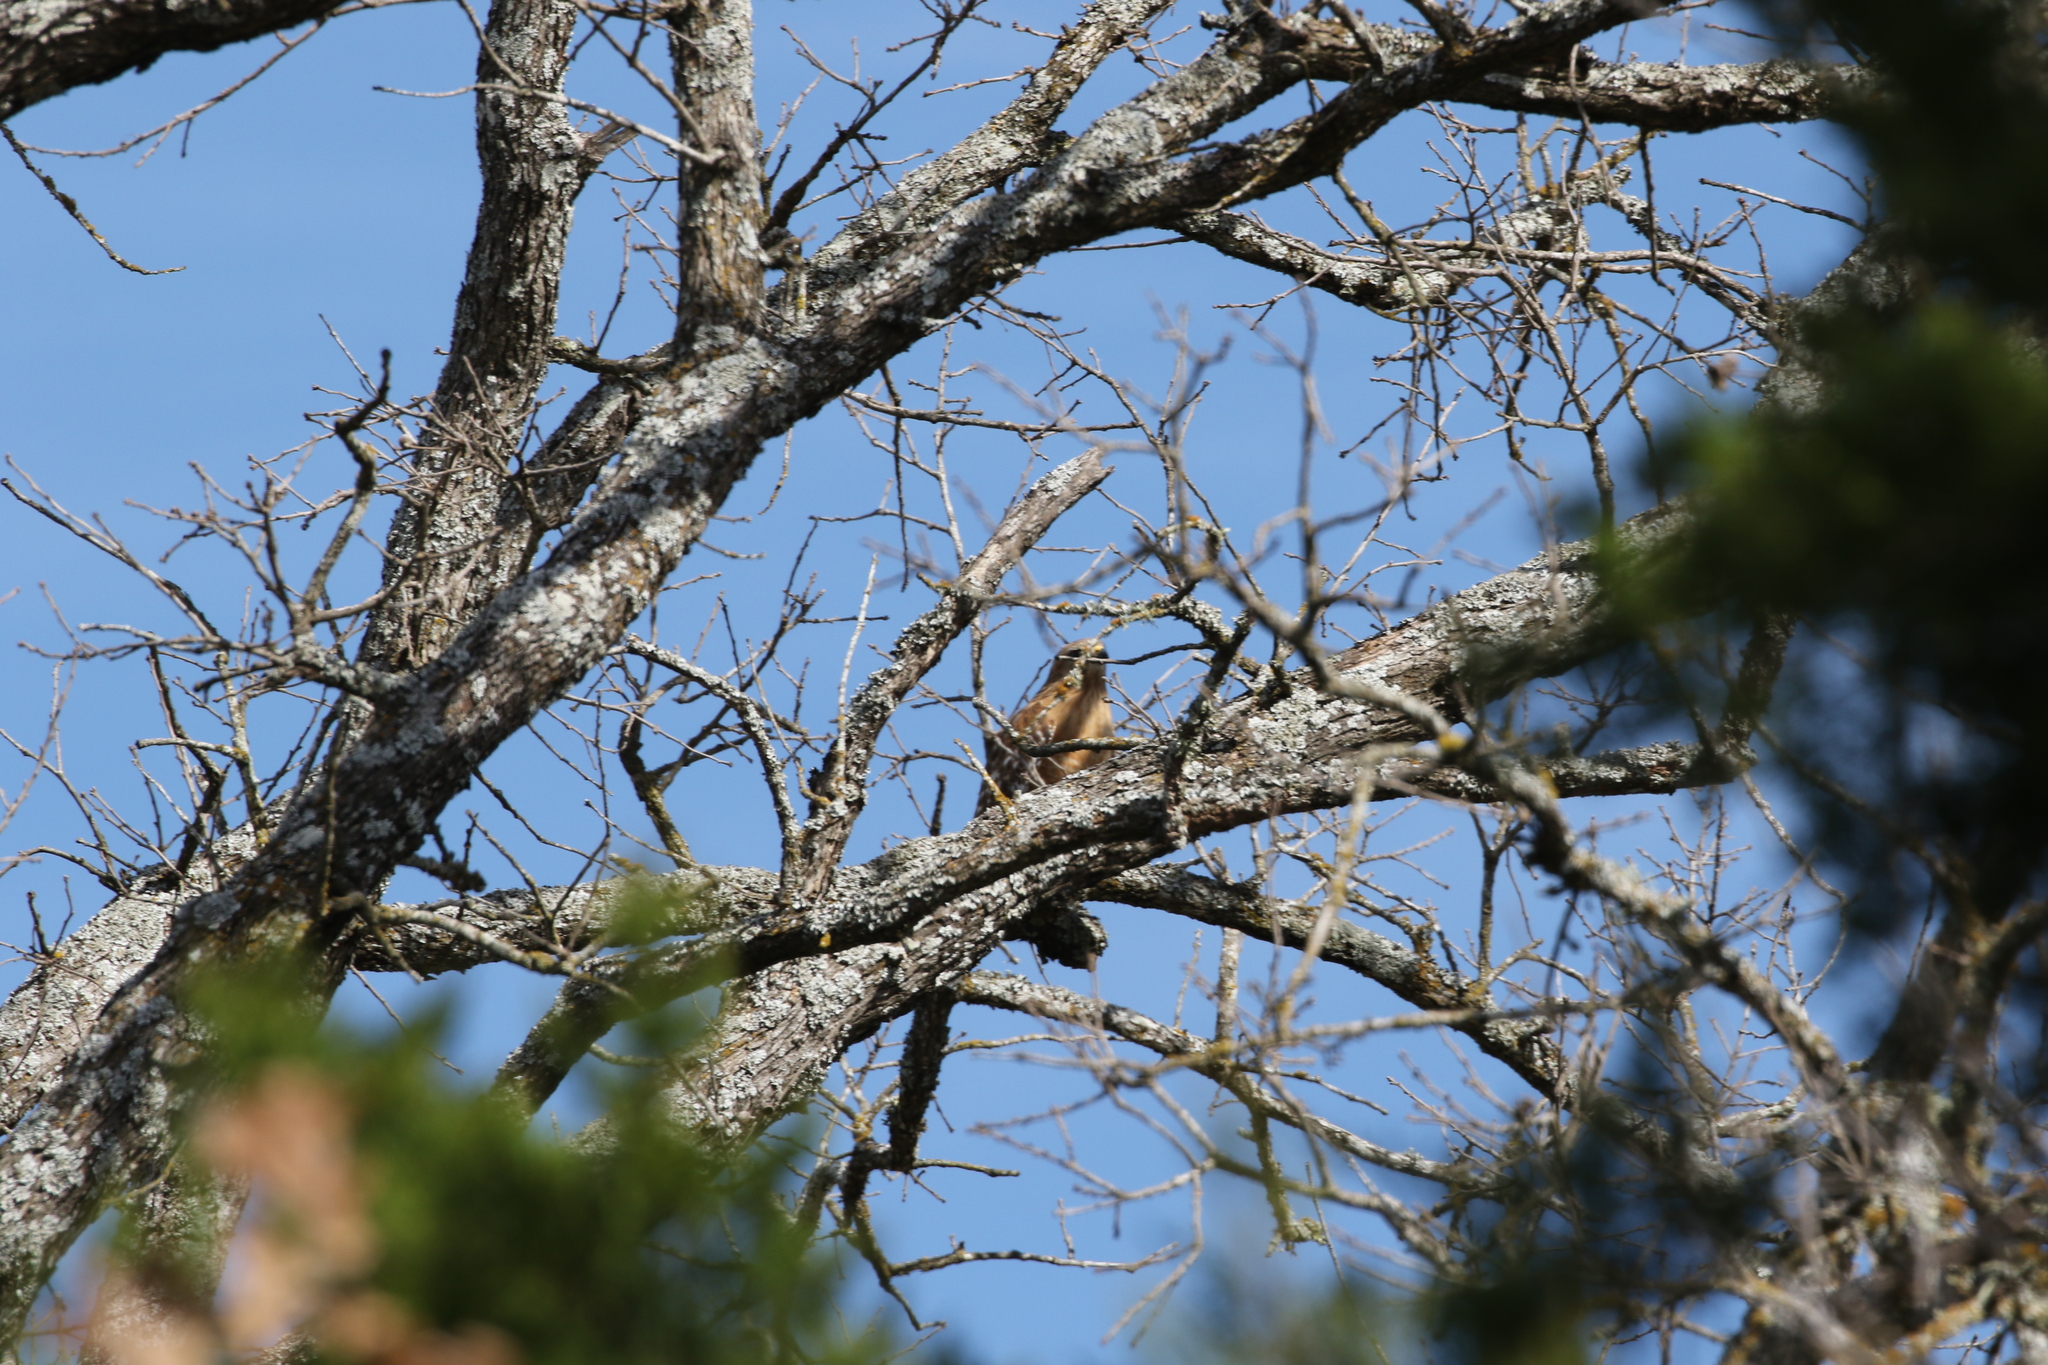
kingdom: Animalia
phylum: Chordata
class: Aves
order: Accipitriformes
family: Accipitridae
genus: Buteo
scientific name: Buteo lineatus
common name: Red-shouldered hawk
